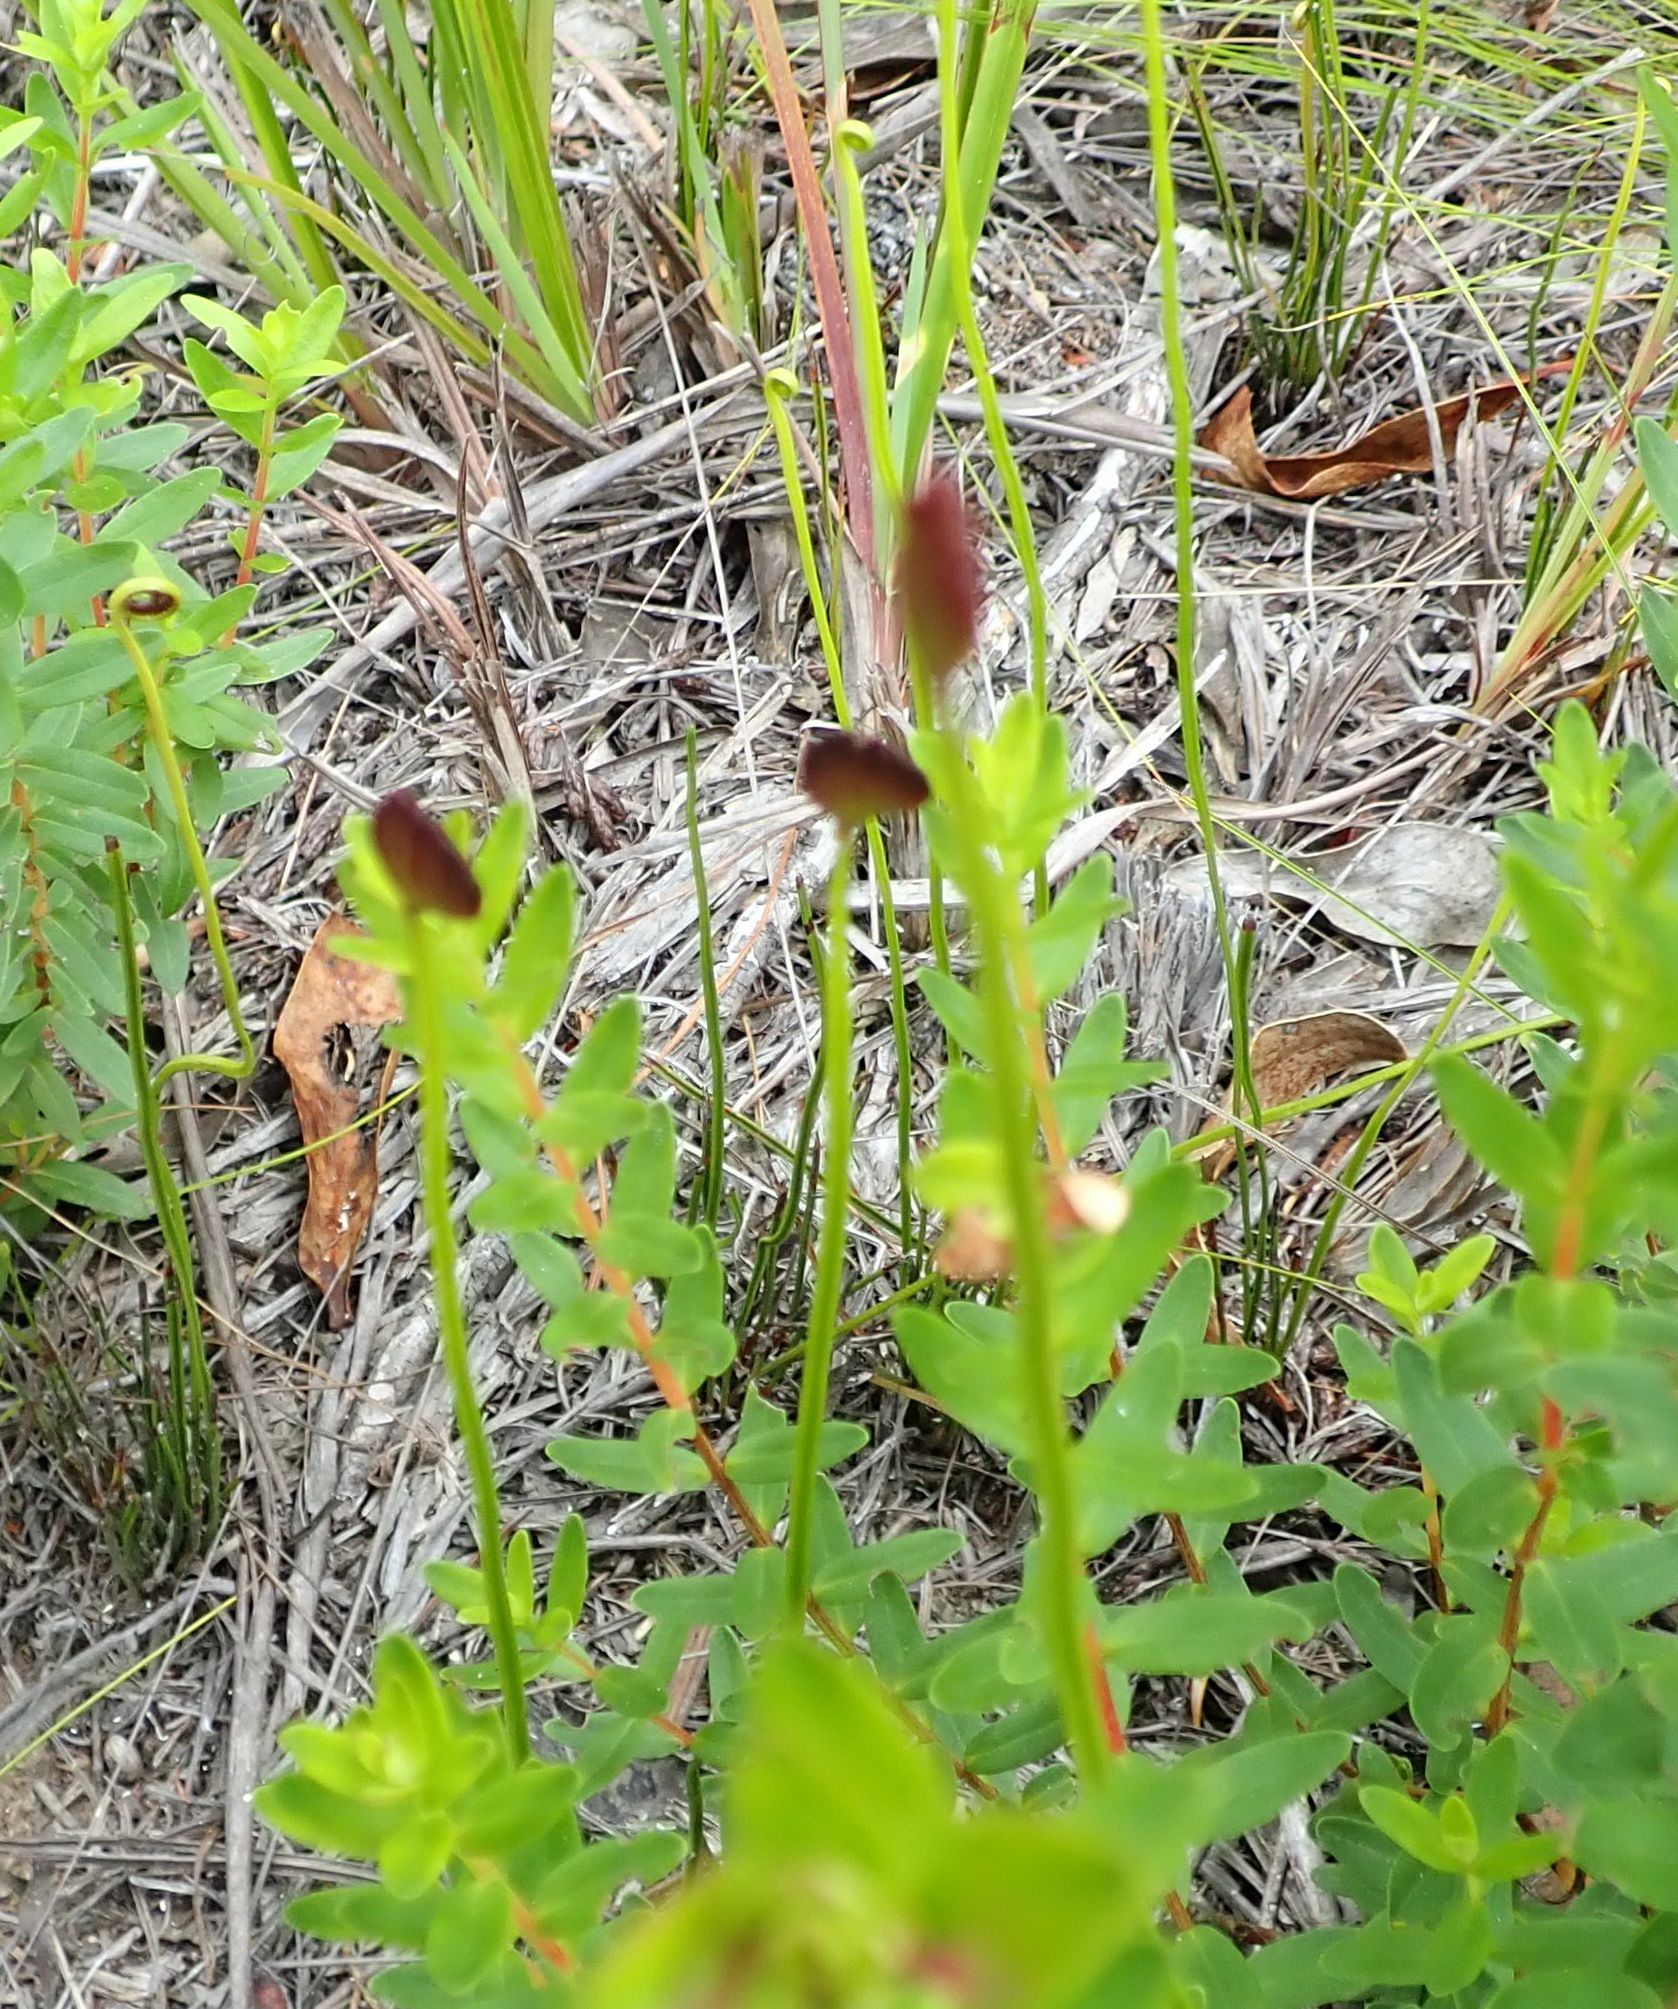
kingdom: Plantae
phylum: Tracheophyta
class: Polypodiopsida
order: Schizaeales
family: Schizaeaceae
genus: Schizaea
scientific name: Schizaea pectinata
